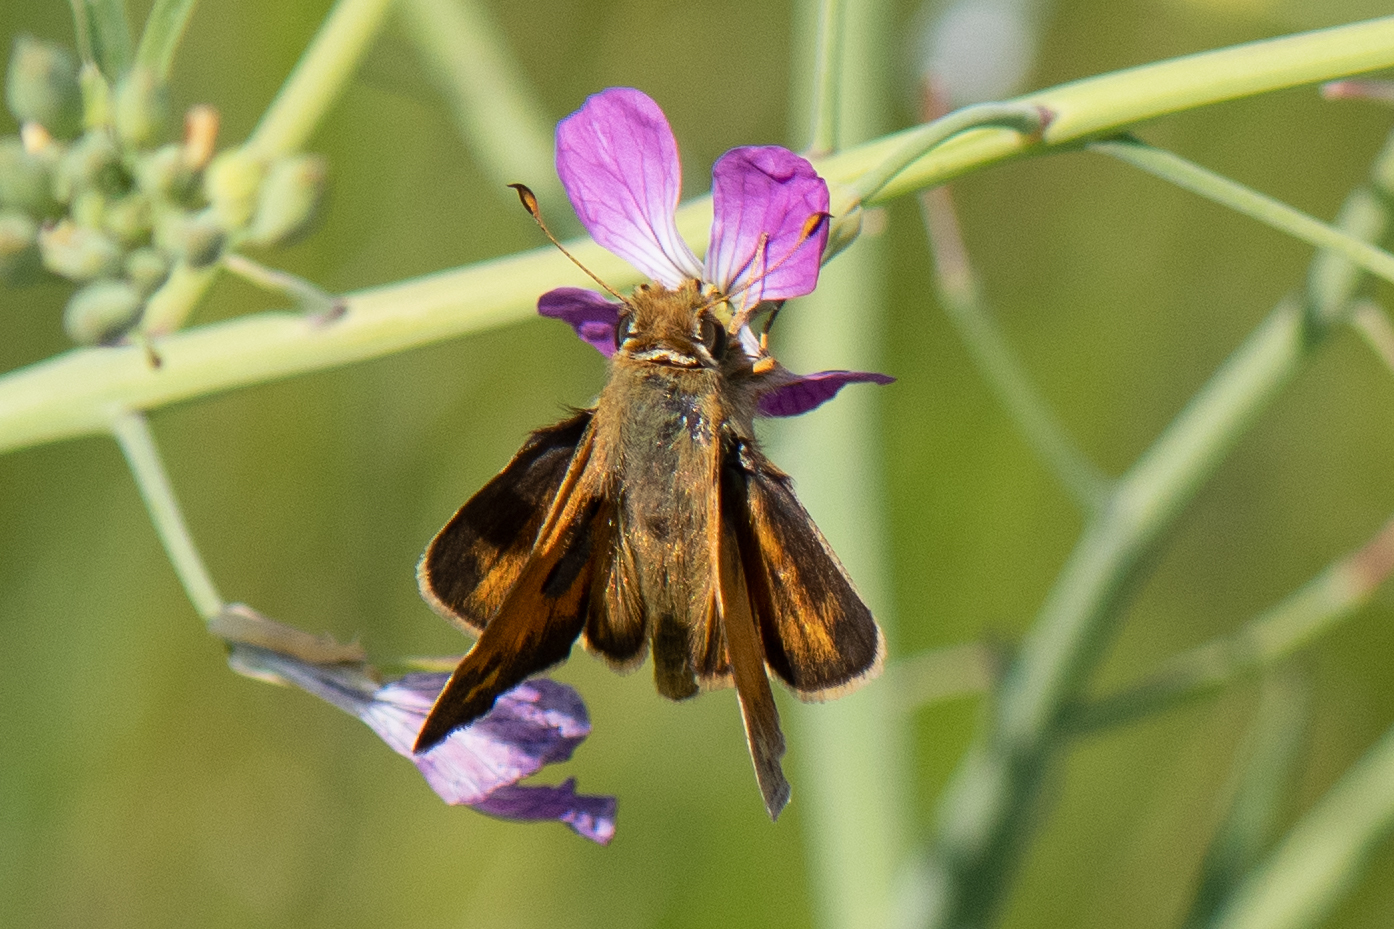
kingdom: Animalia
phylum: Arthropoda
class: Insecta
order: Lepidoptera
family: Hesperiidae
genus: Atalopedes
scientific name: Atalopedes campestris
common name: Sachem
